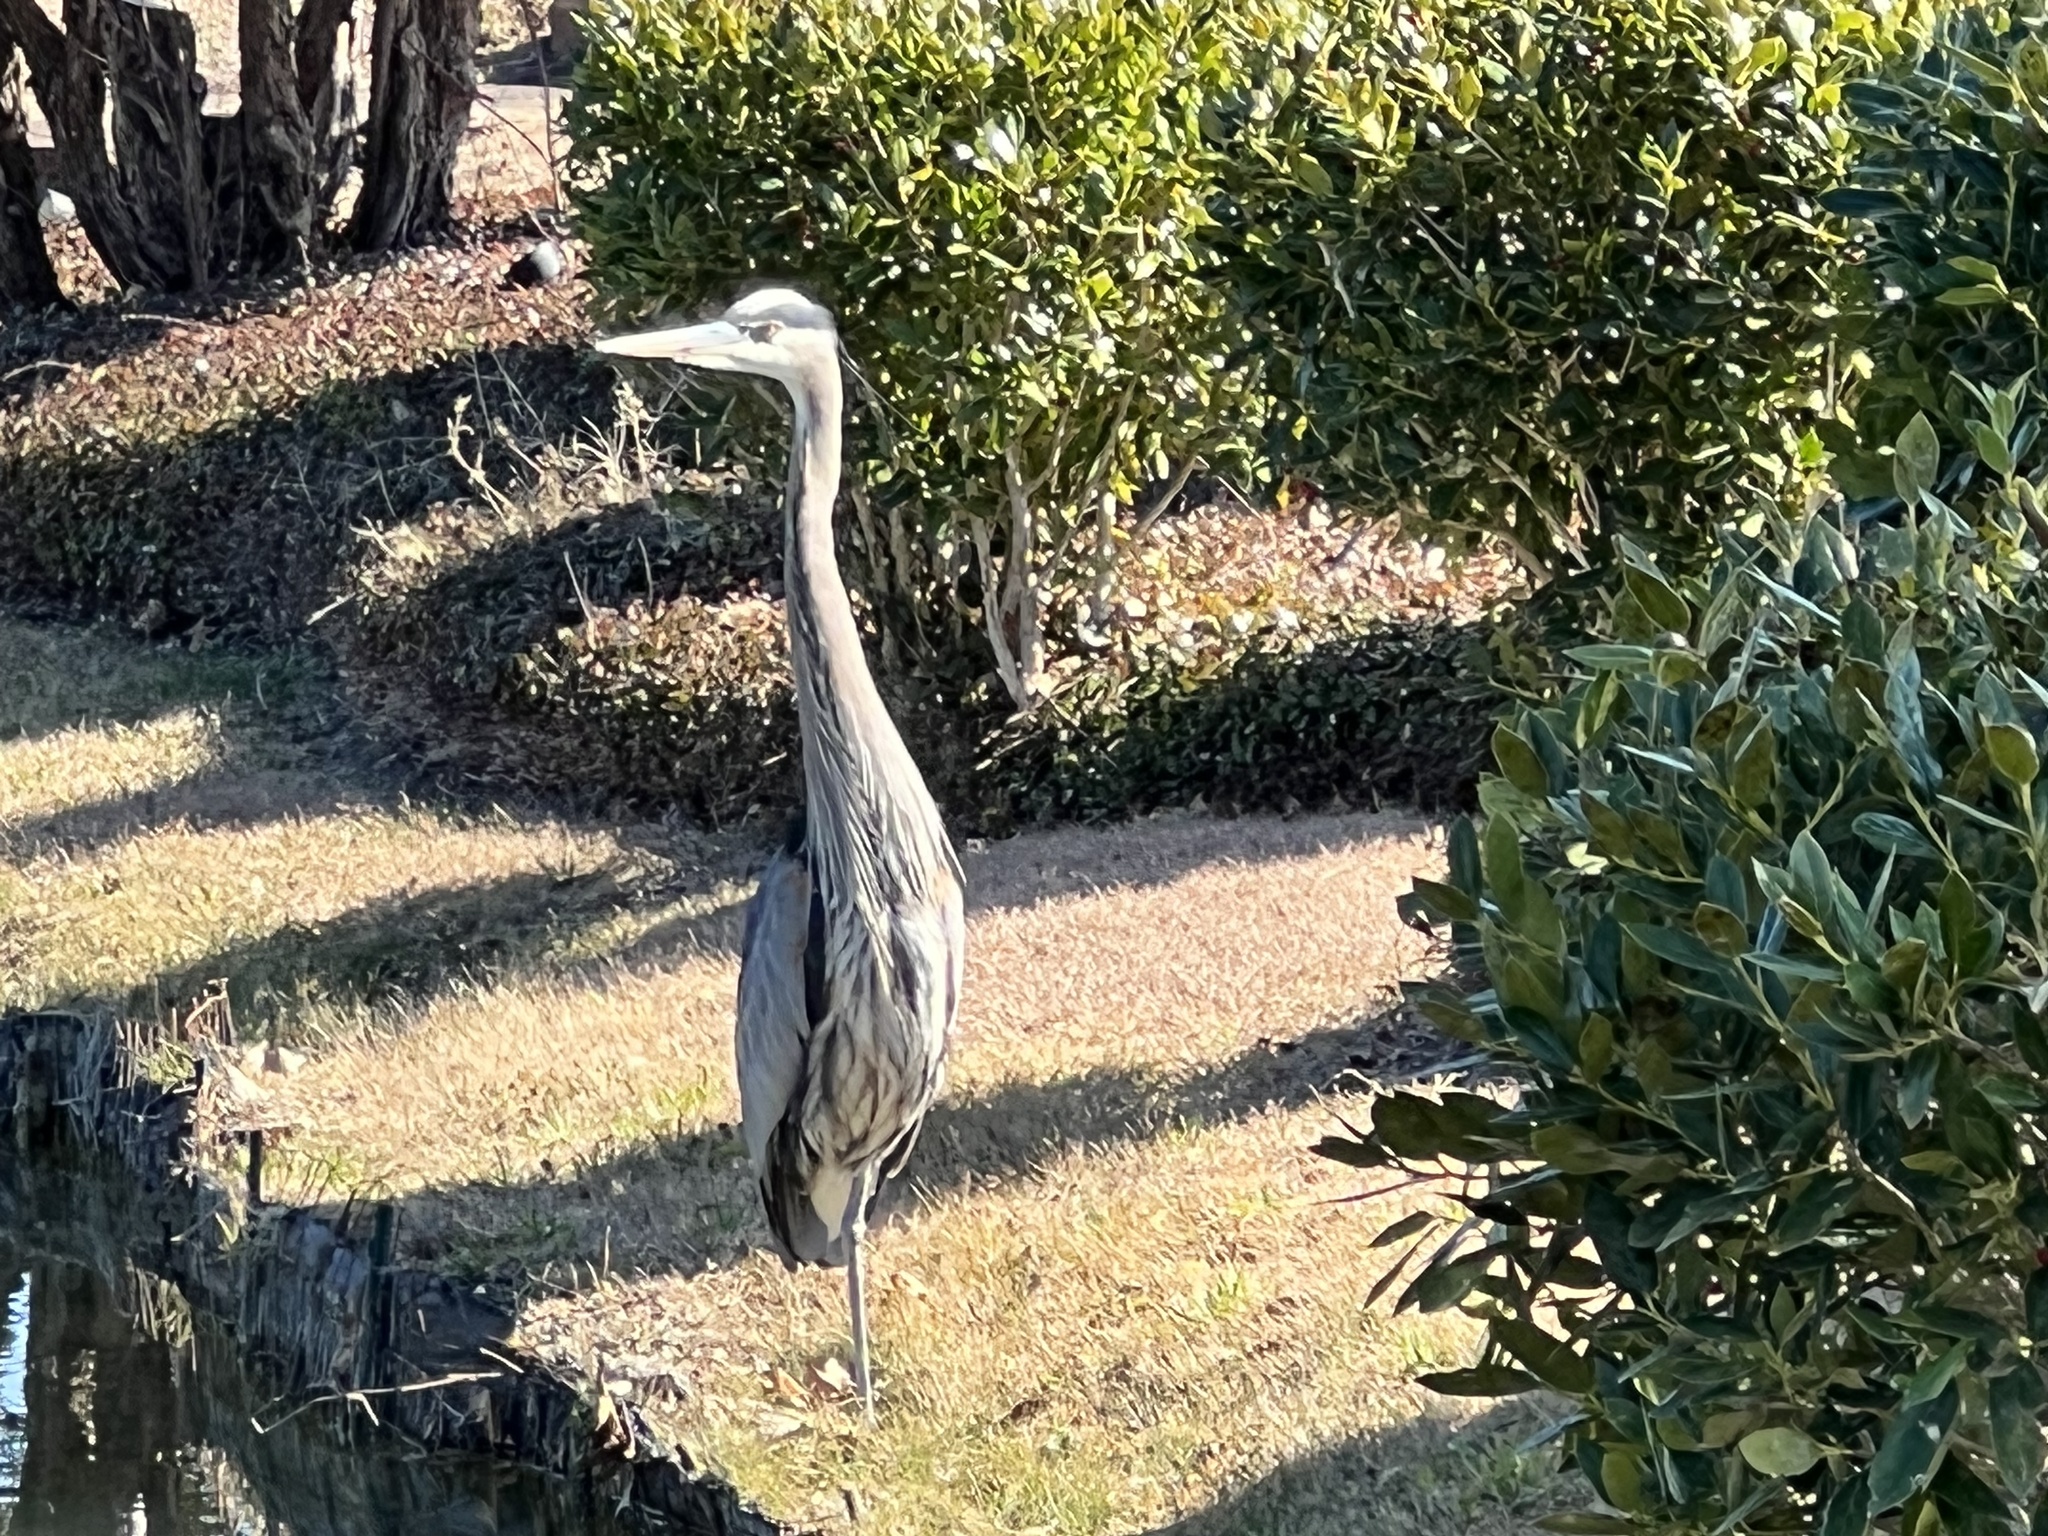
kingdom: Animalia
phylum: Chordata
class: Aves
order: Pelecaniformes
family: Ardeidae
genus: Ardea
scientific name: Ardea herodias
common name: Great blue heron
